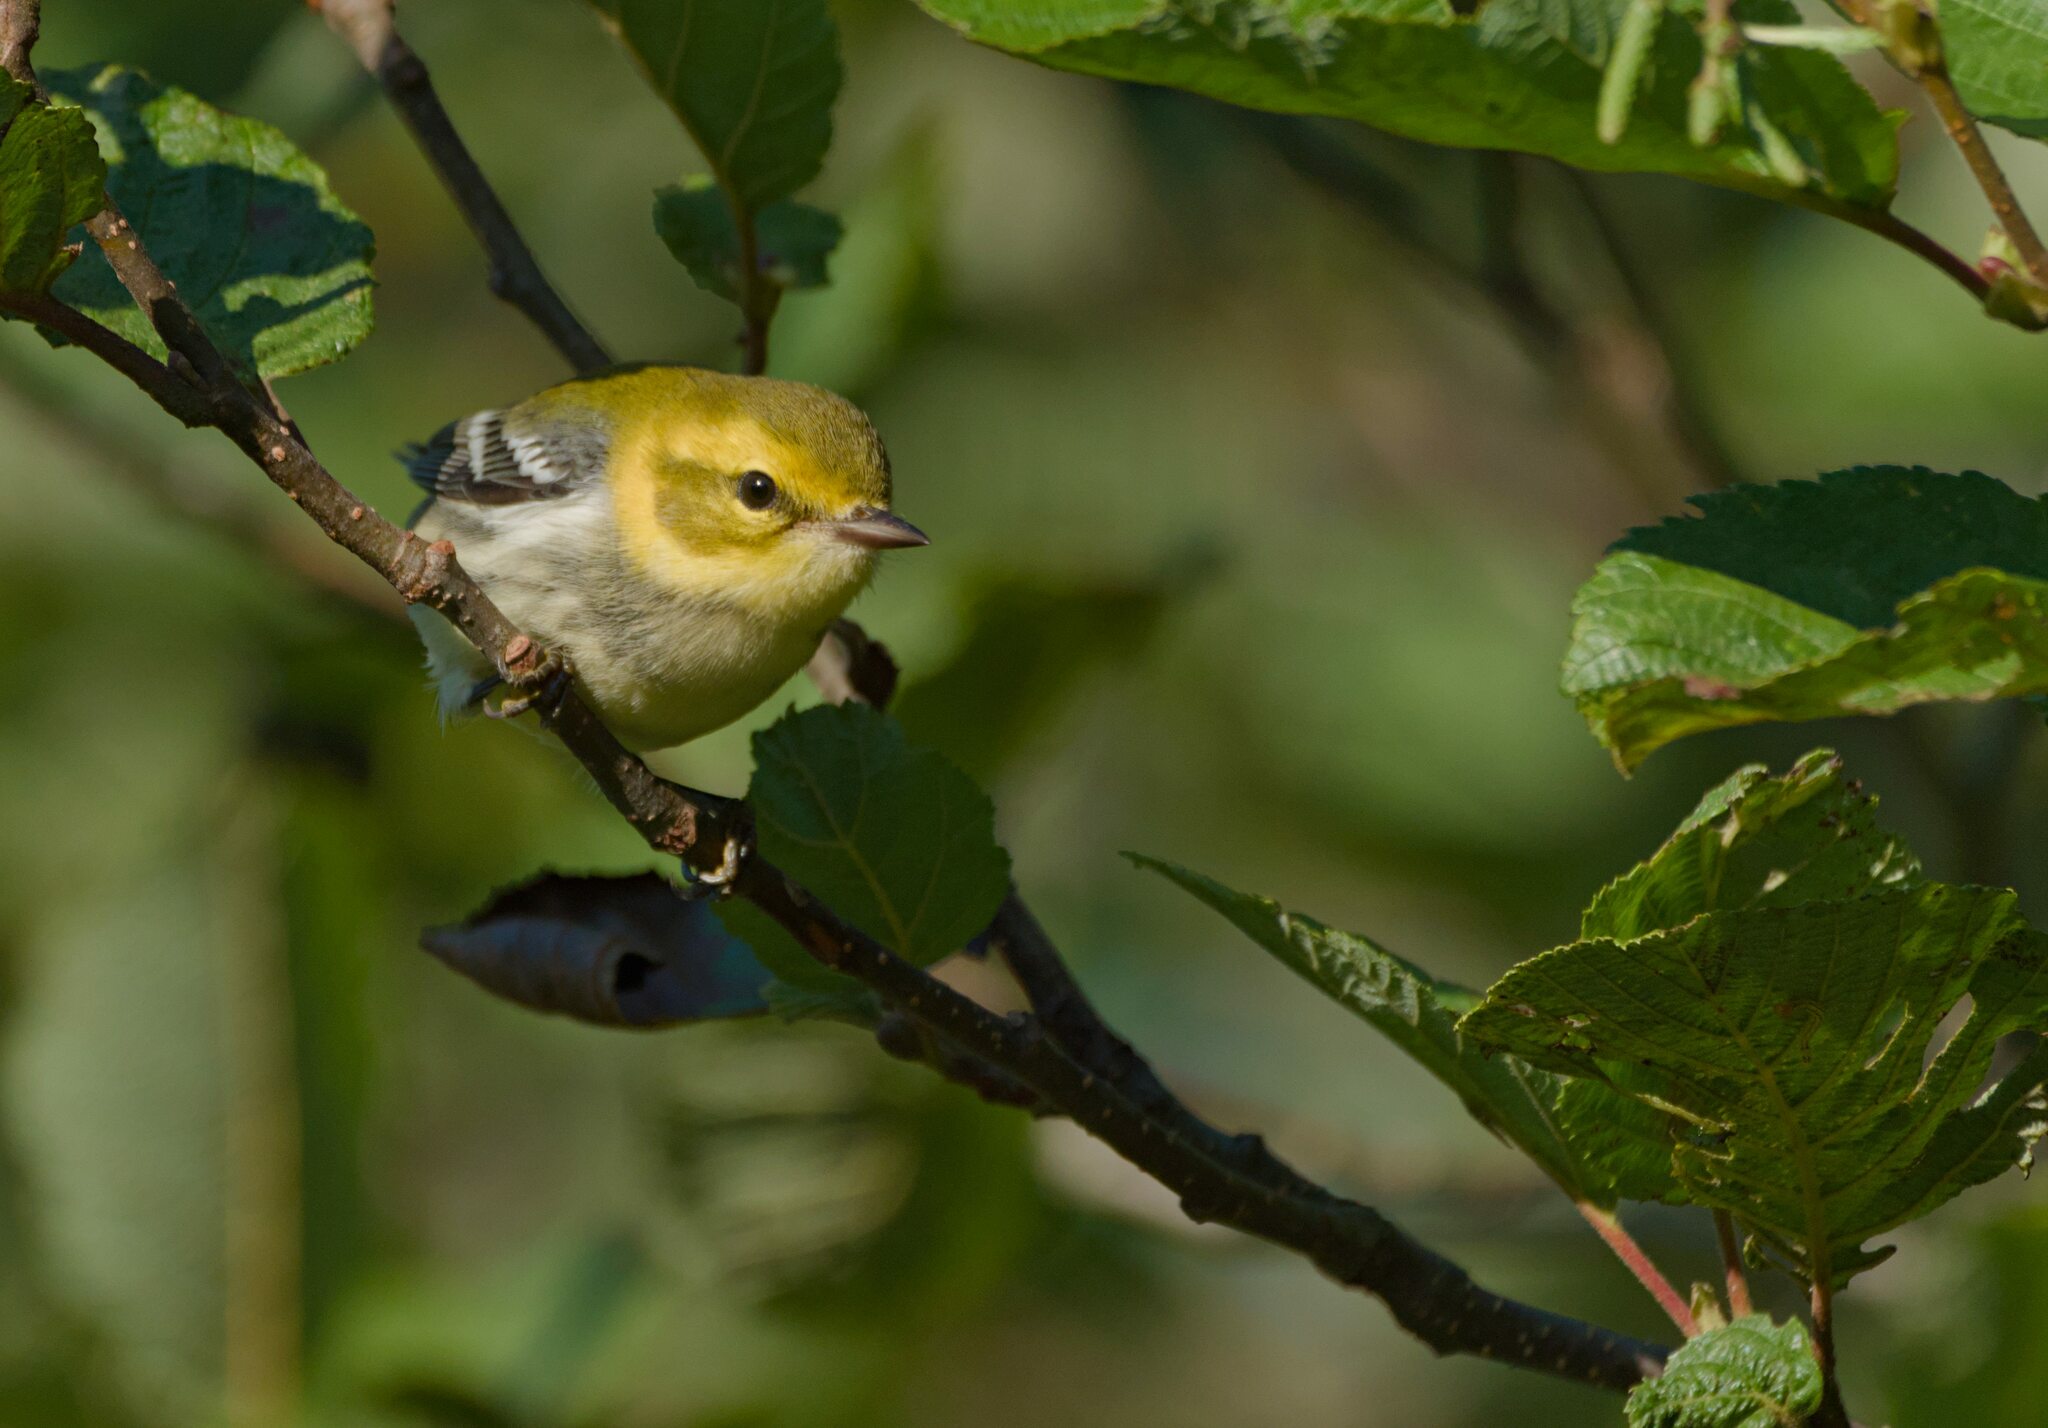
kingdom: Animalia
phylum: Chordata
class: Aves
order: Passeriformes
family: Parulidae
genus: Setophaga
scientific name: Setophaga virens
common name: Black-throated green warbler
